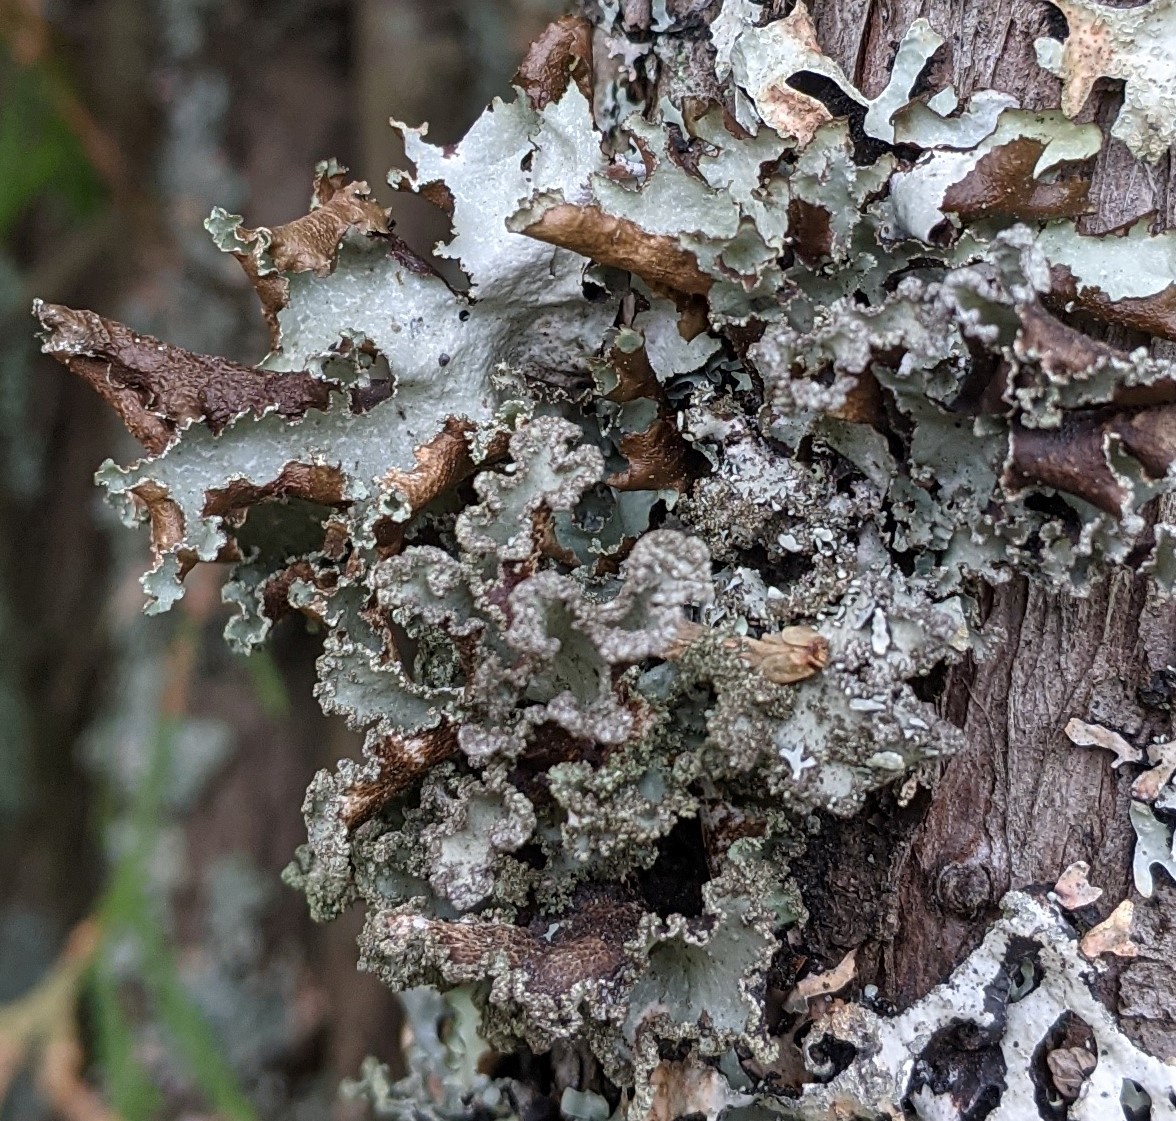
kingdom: Fungi
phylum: Ascomycota
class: Lecanoromycetes
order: Lecanorales
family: Parmeliaceae
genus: Platismatia
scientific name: Platismatia glauca
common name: Varied rag lichen
